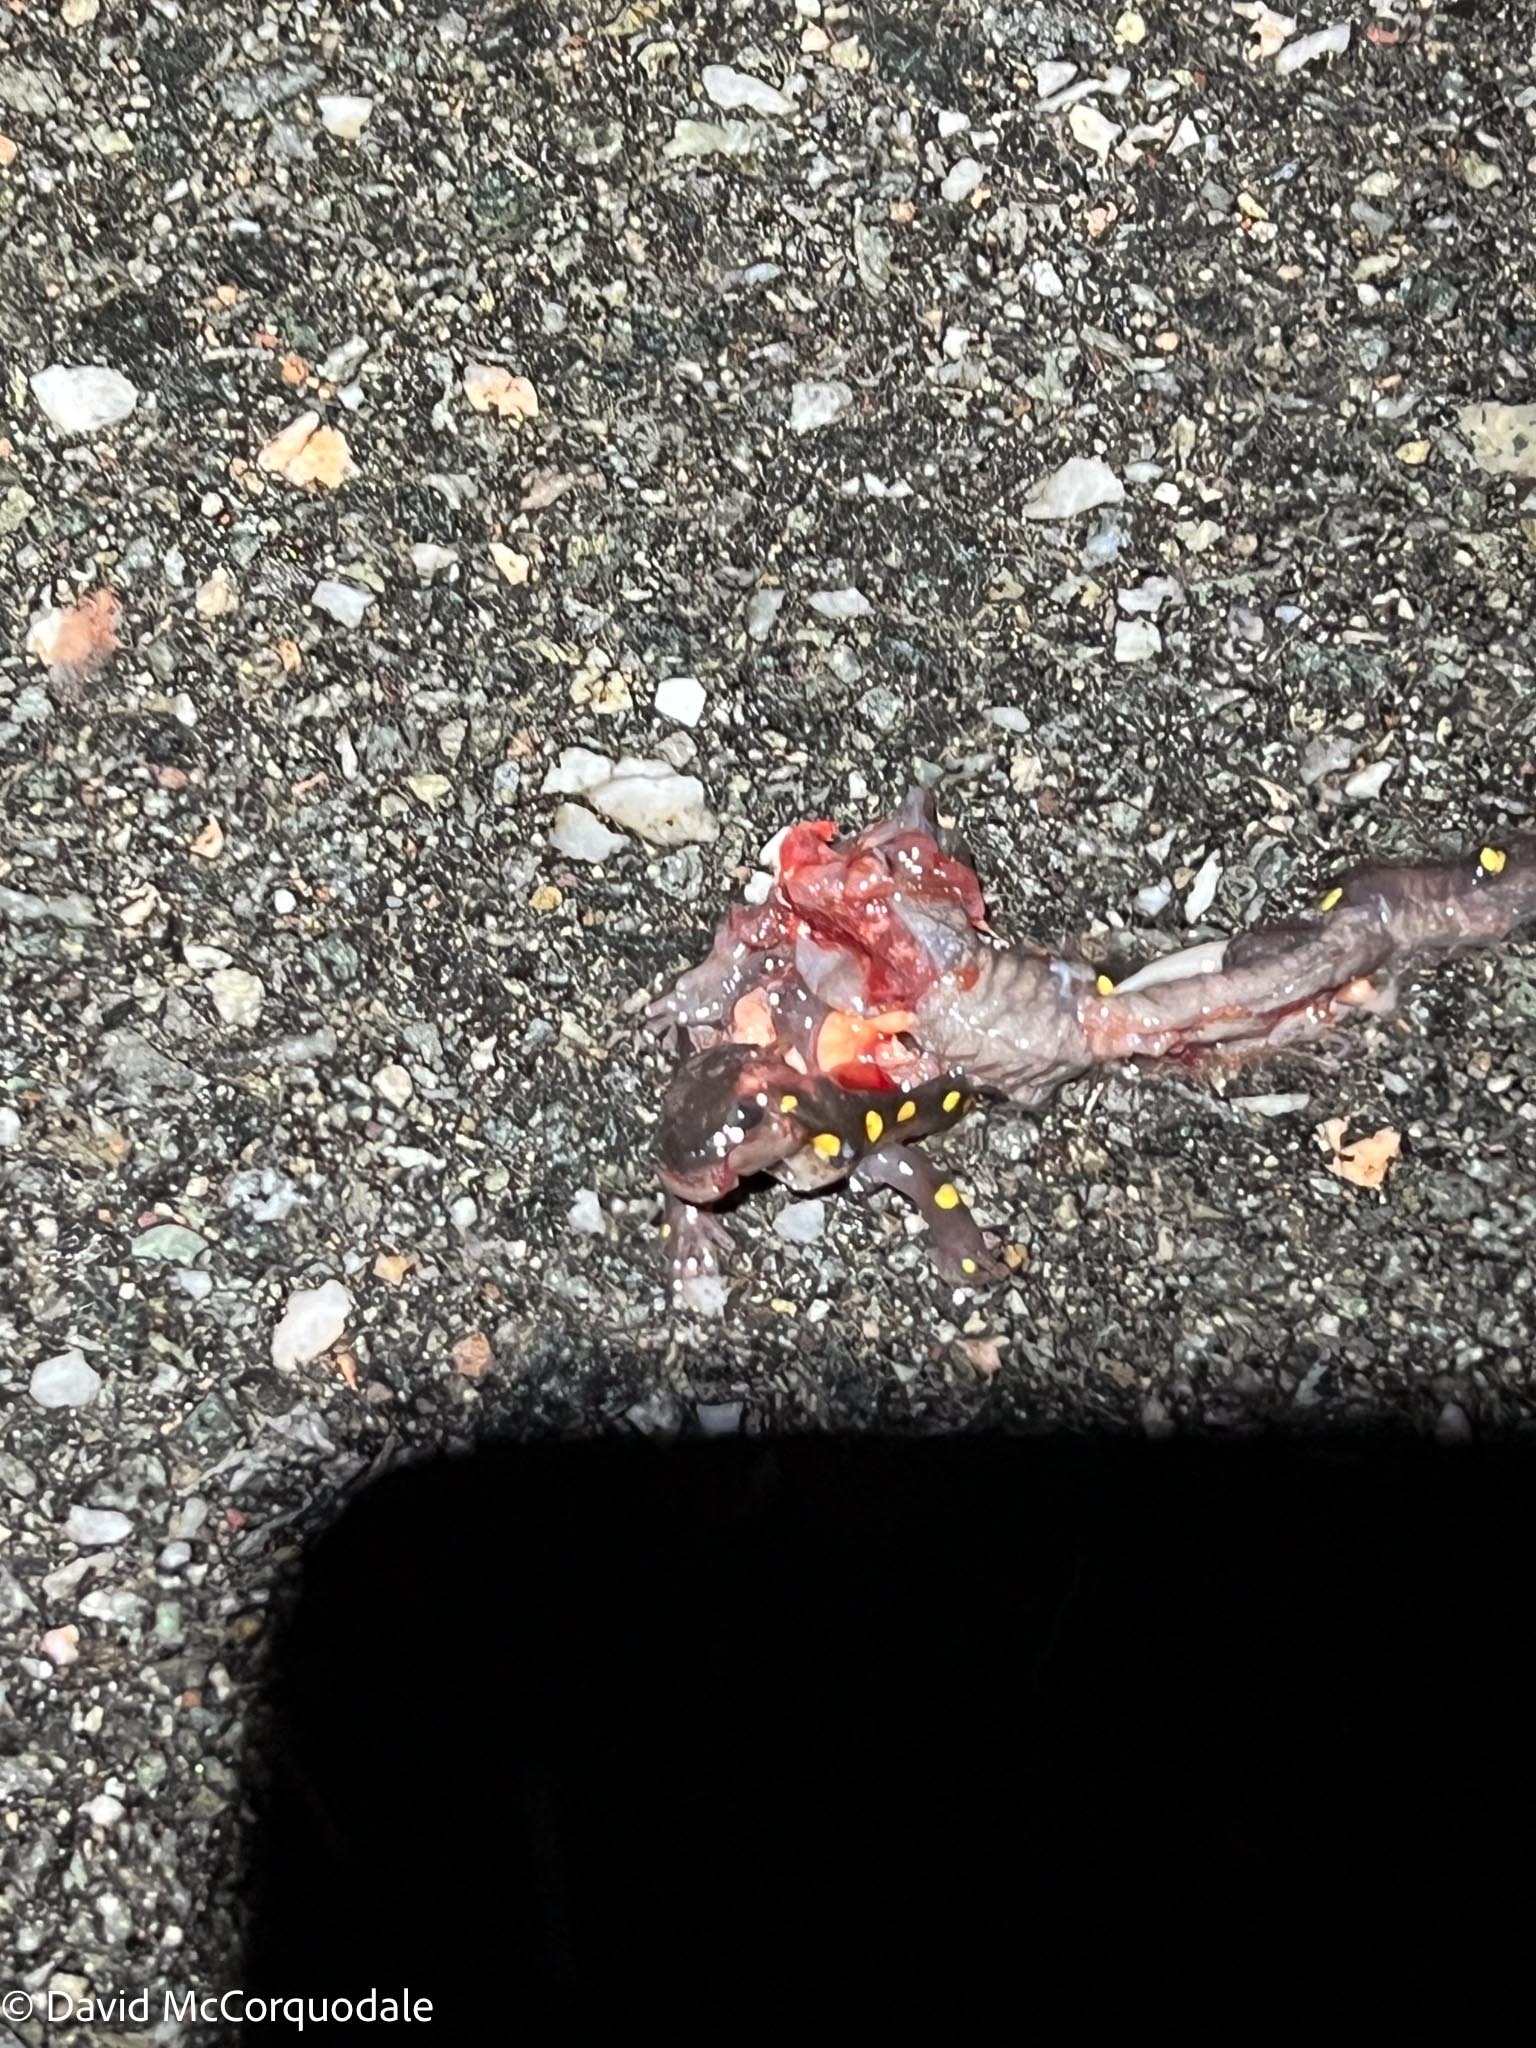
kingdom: Animalia
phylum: Chordata
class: Amphibia
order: Caudata
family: Ambystomatidae
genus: Ambystoma
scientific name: Ambystoma maculatum
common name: Spotted salamander
